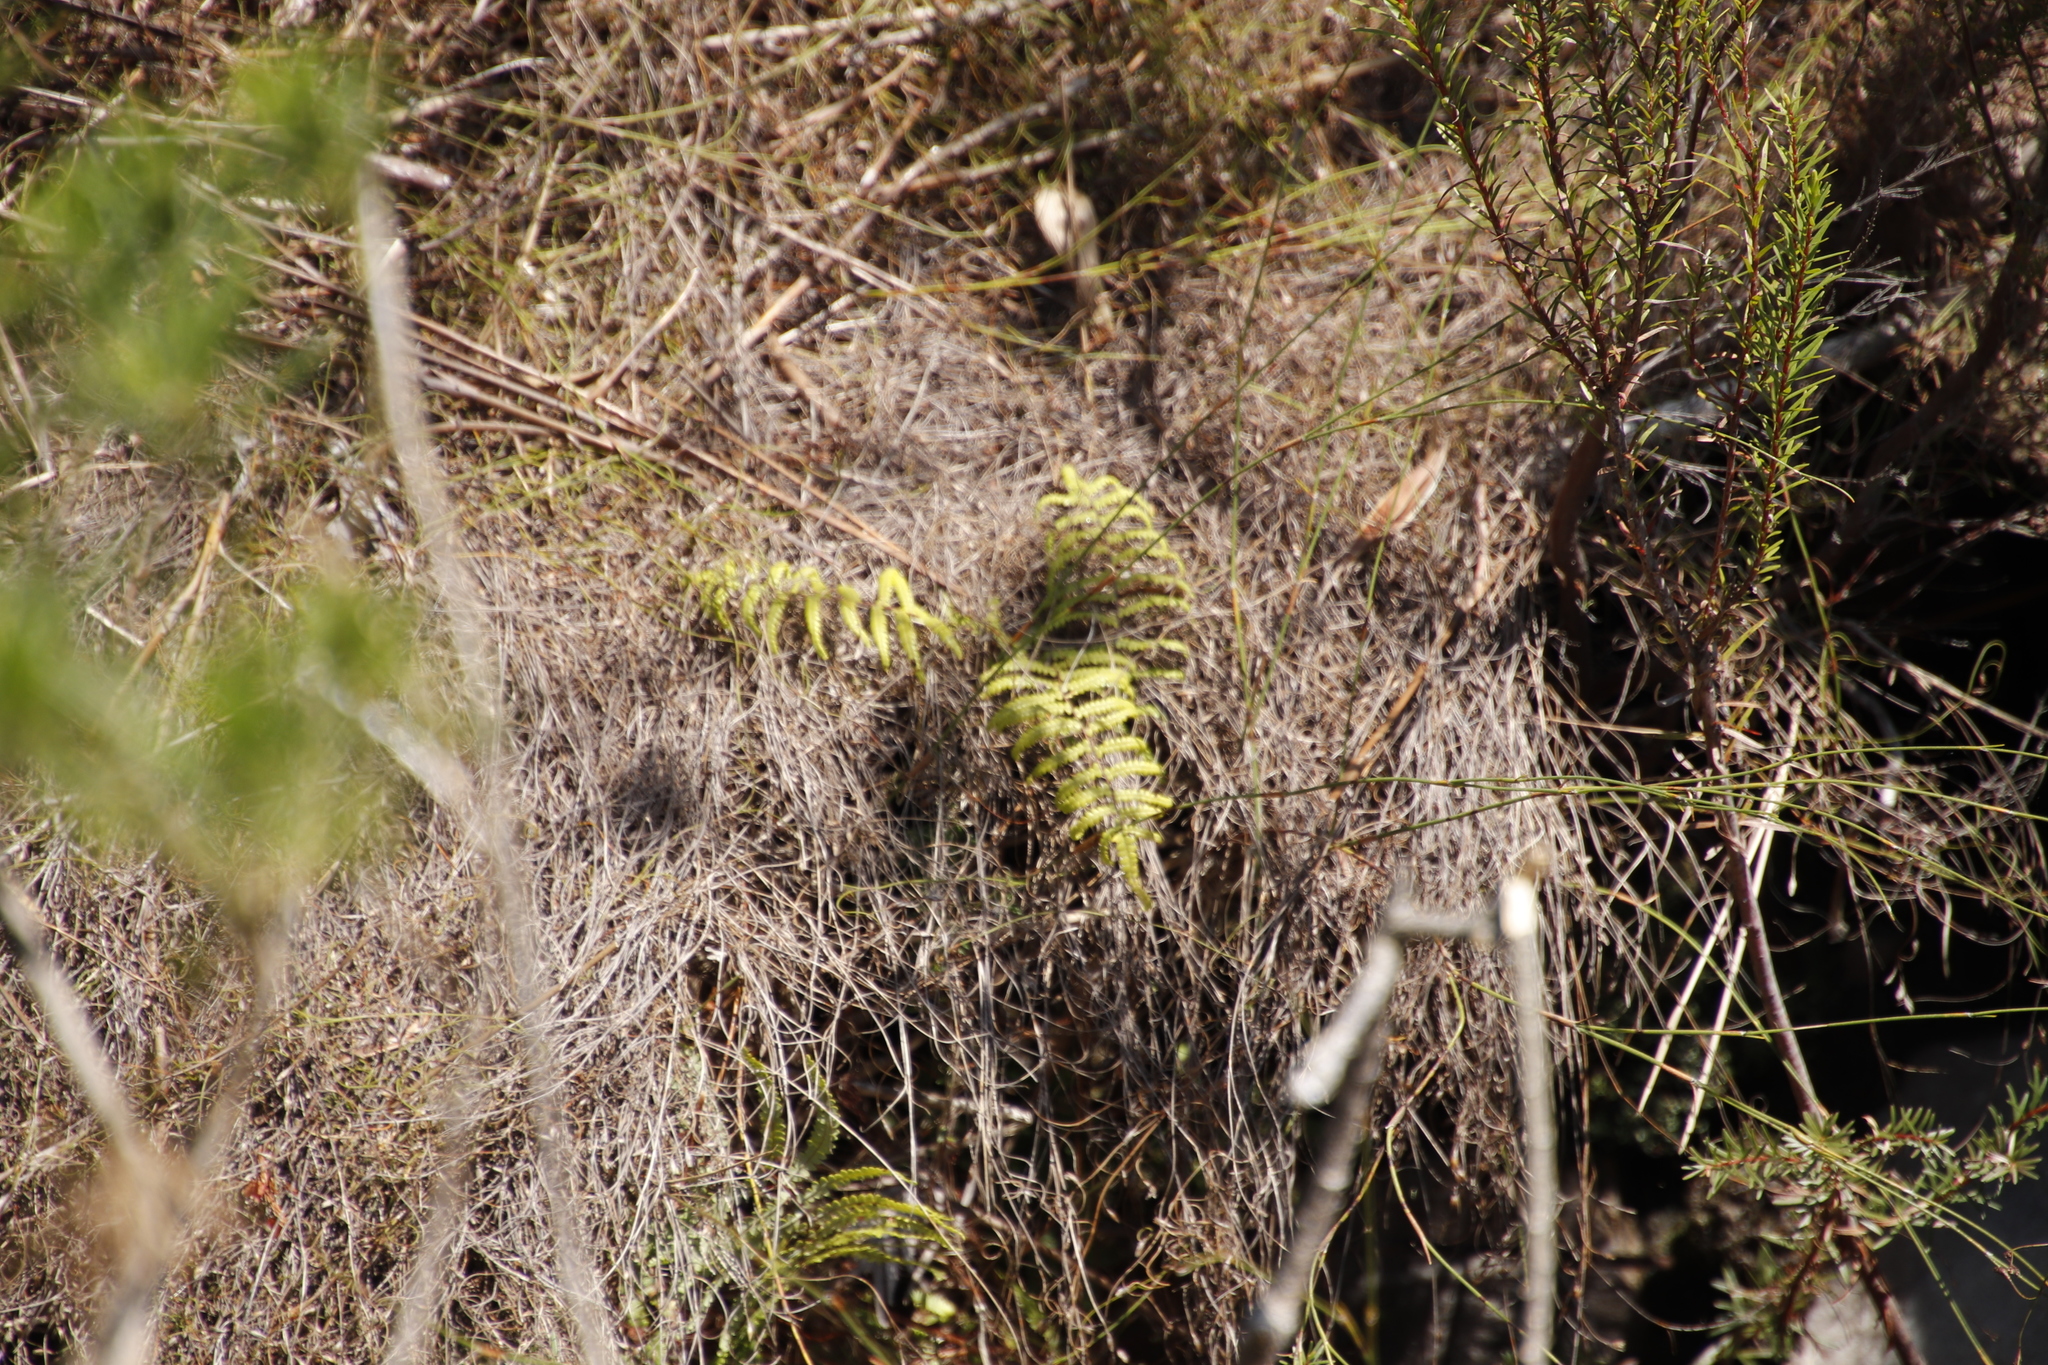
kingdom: Plantae
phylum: Tracheophyta
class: Polypodiopsida
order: Gleicheniales
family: Gleicheniaceae
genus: Gleichenia
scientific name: Gleichenia polypodioides
